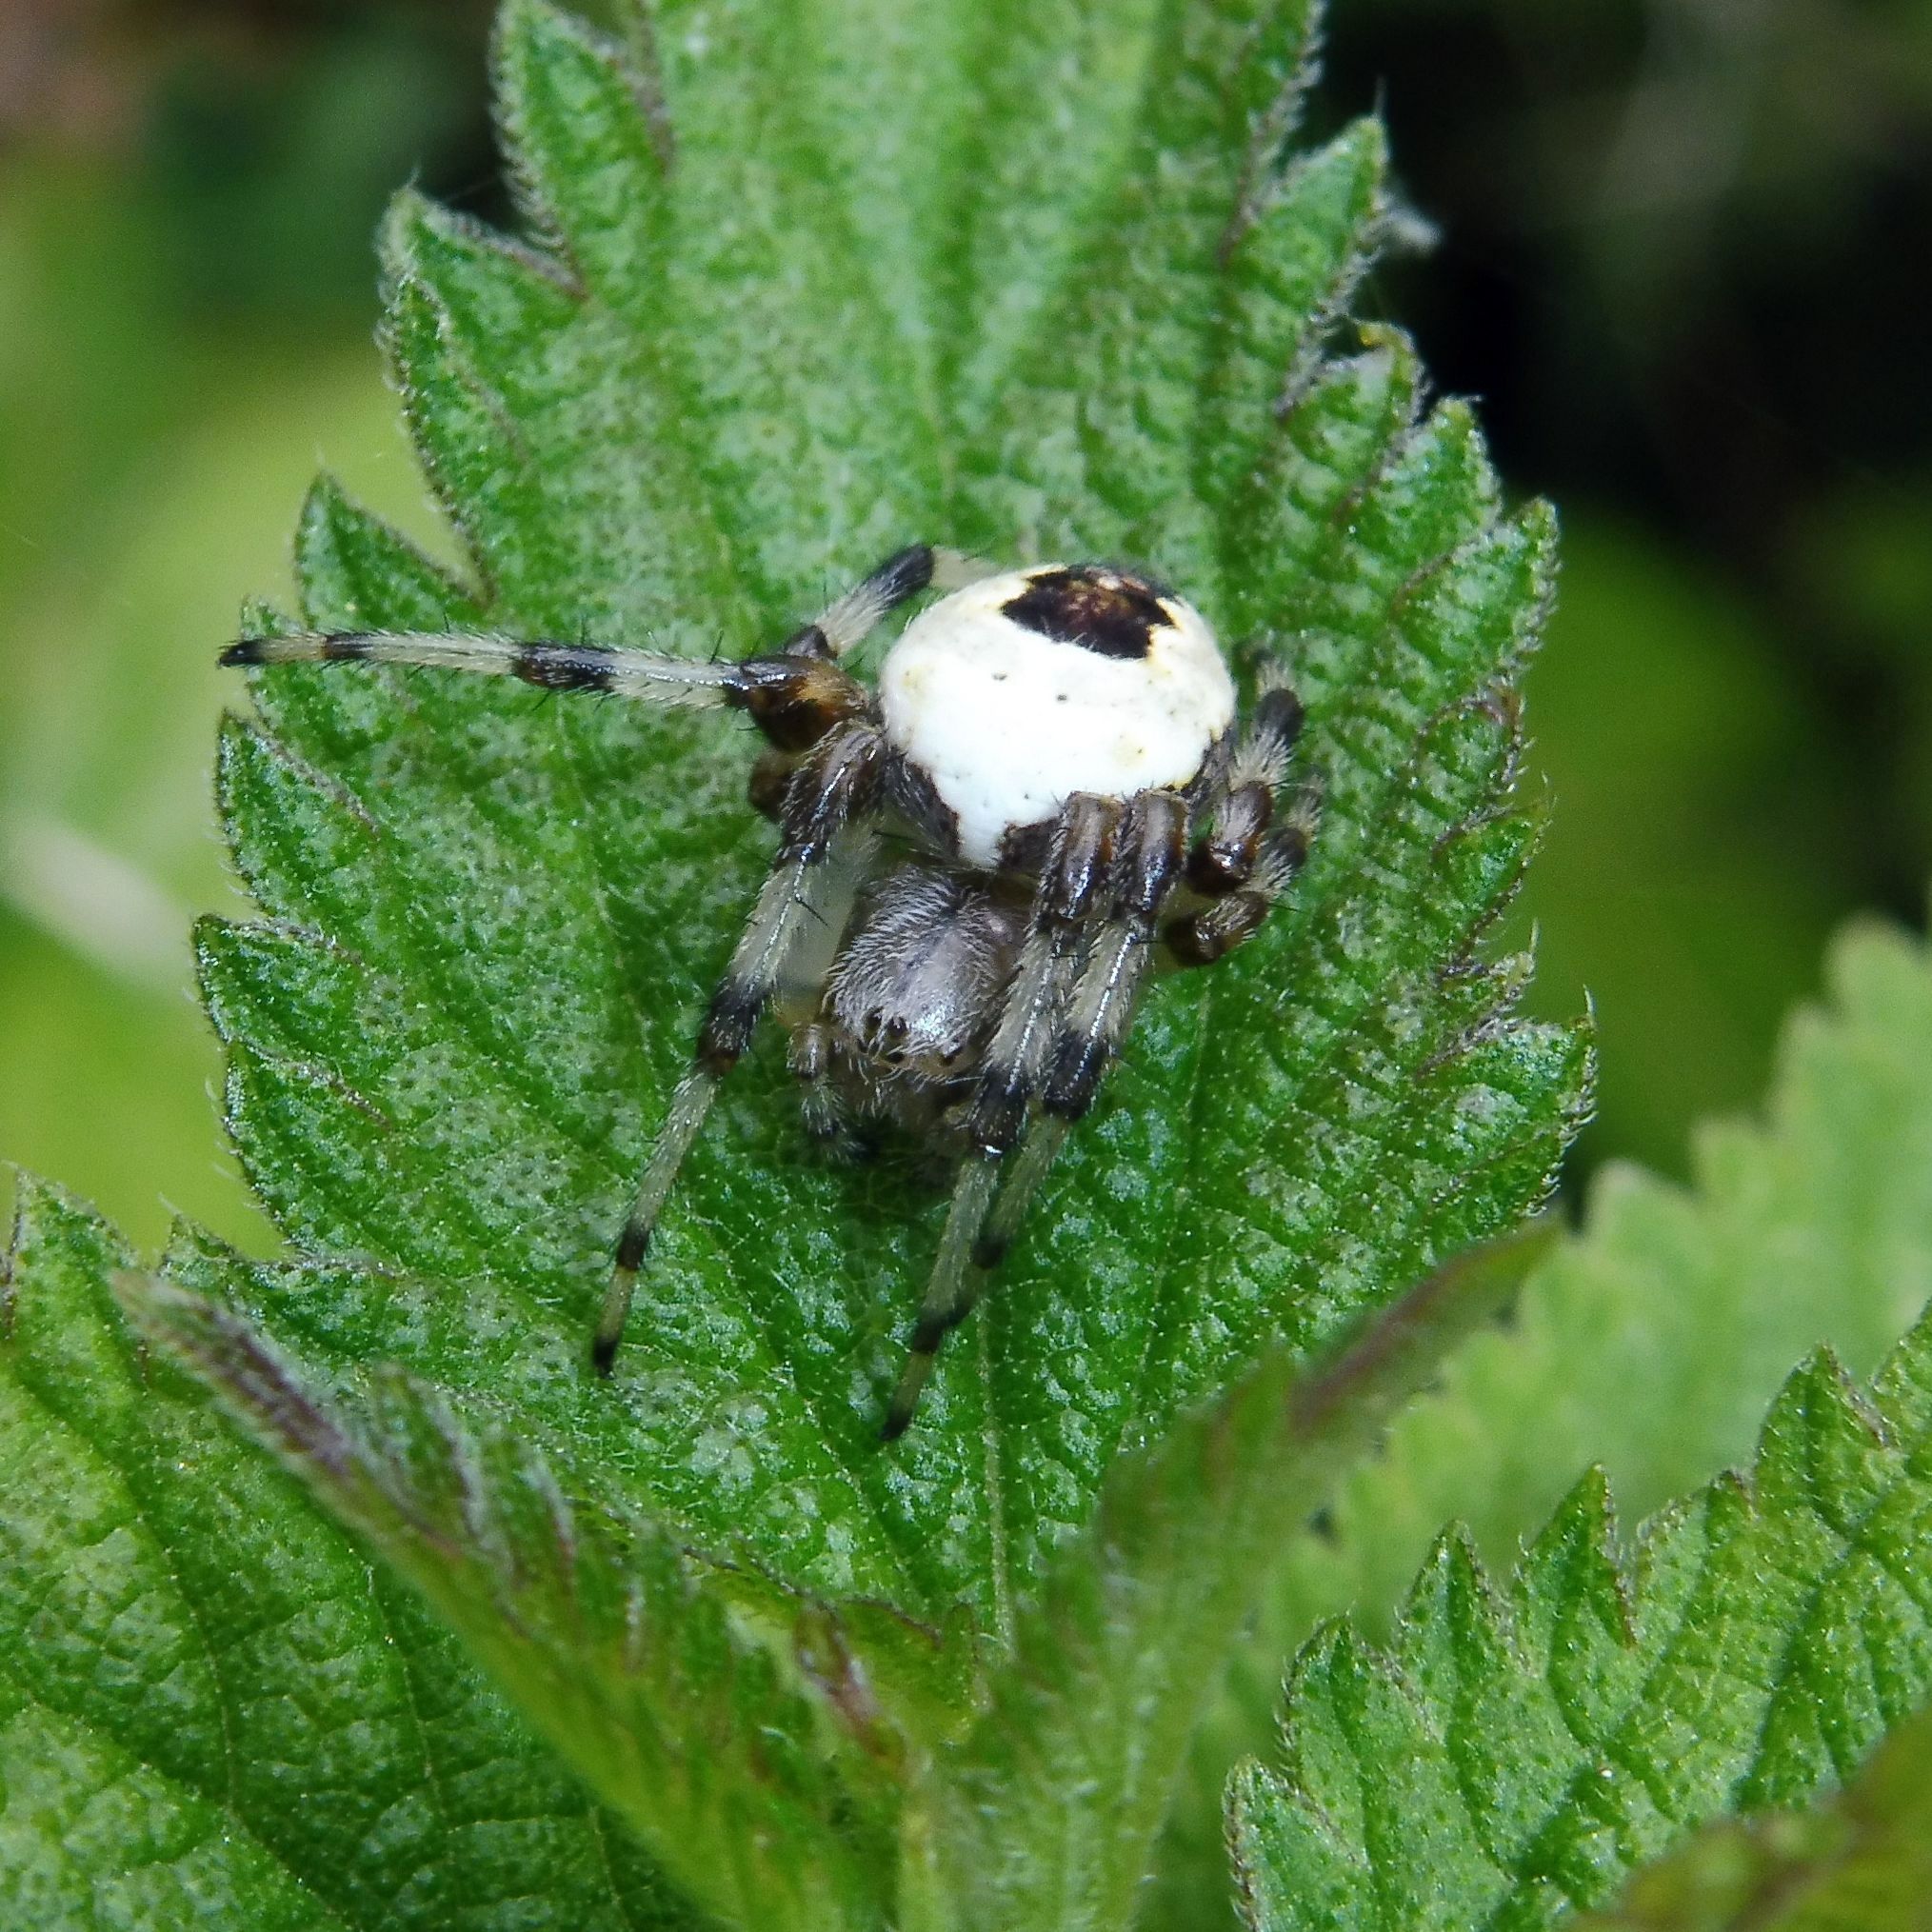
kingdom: Animalia
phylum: Arthropoda
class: Arachnida
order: Araneae
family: Araneidae
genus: Araneus
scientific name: Araneus marmoreus
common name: Marbled orbweaver
